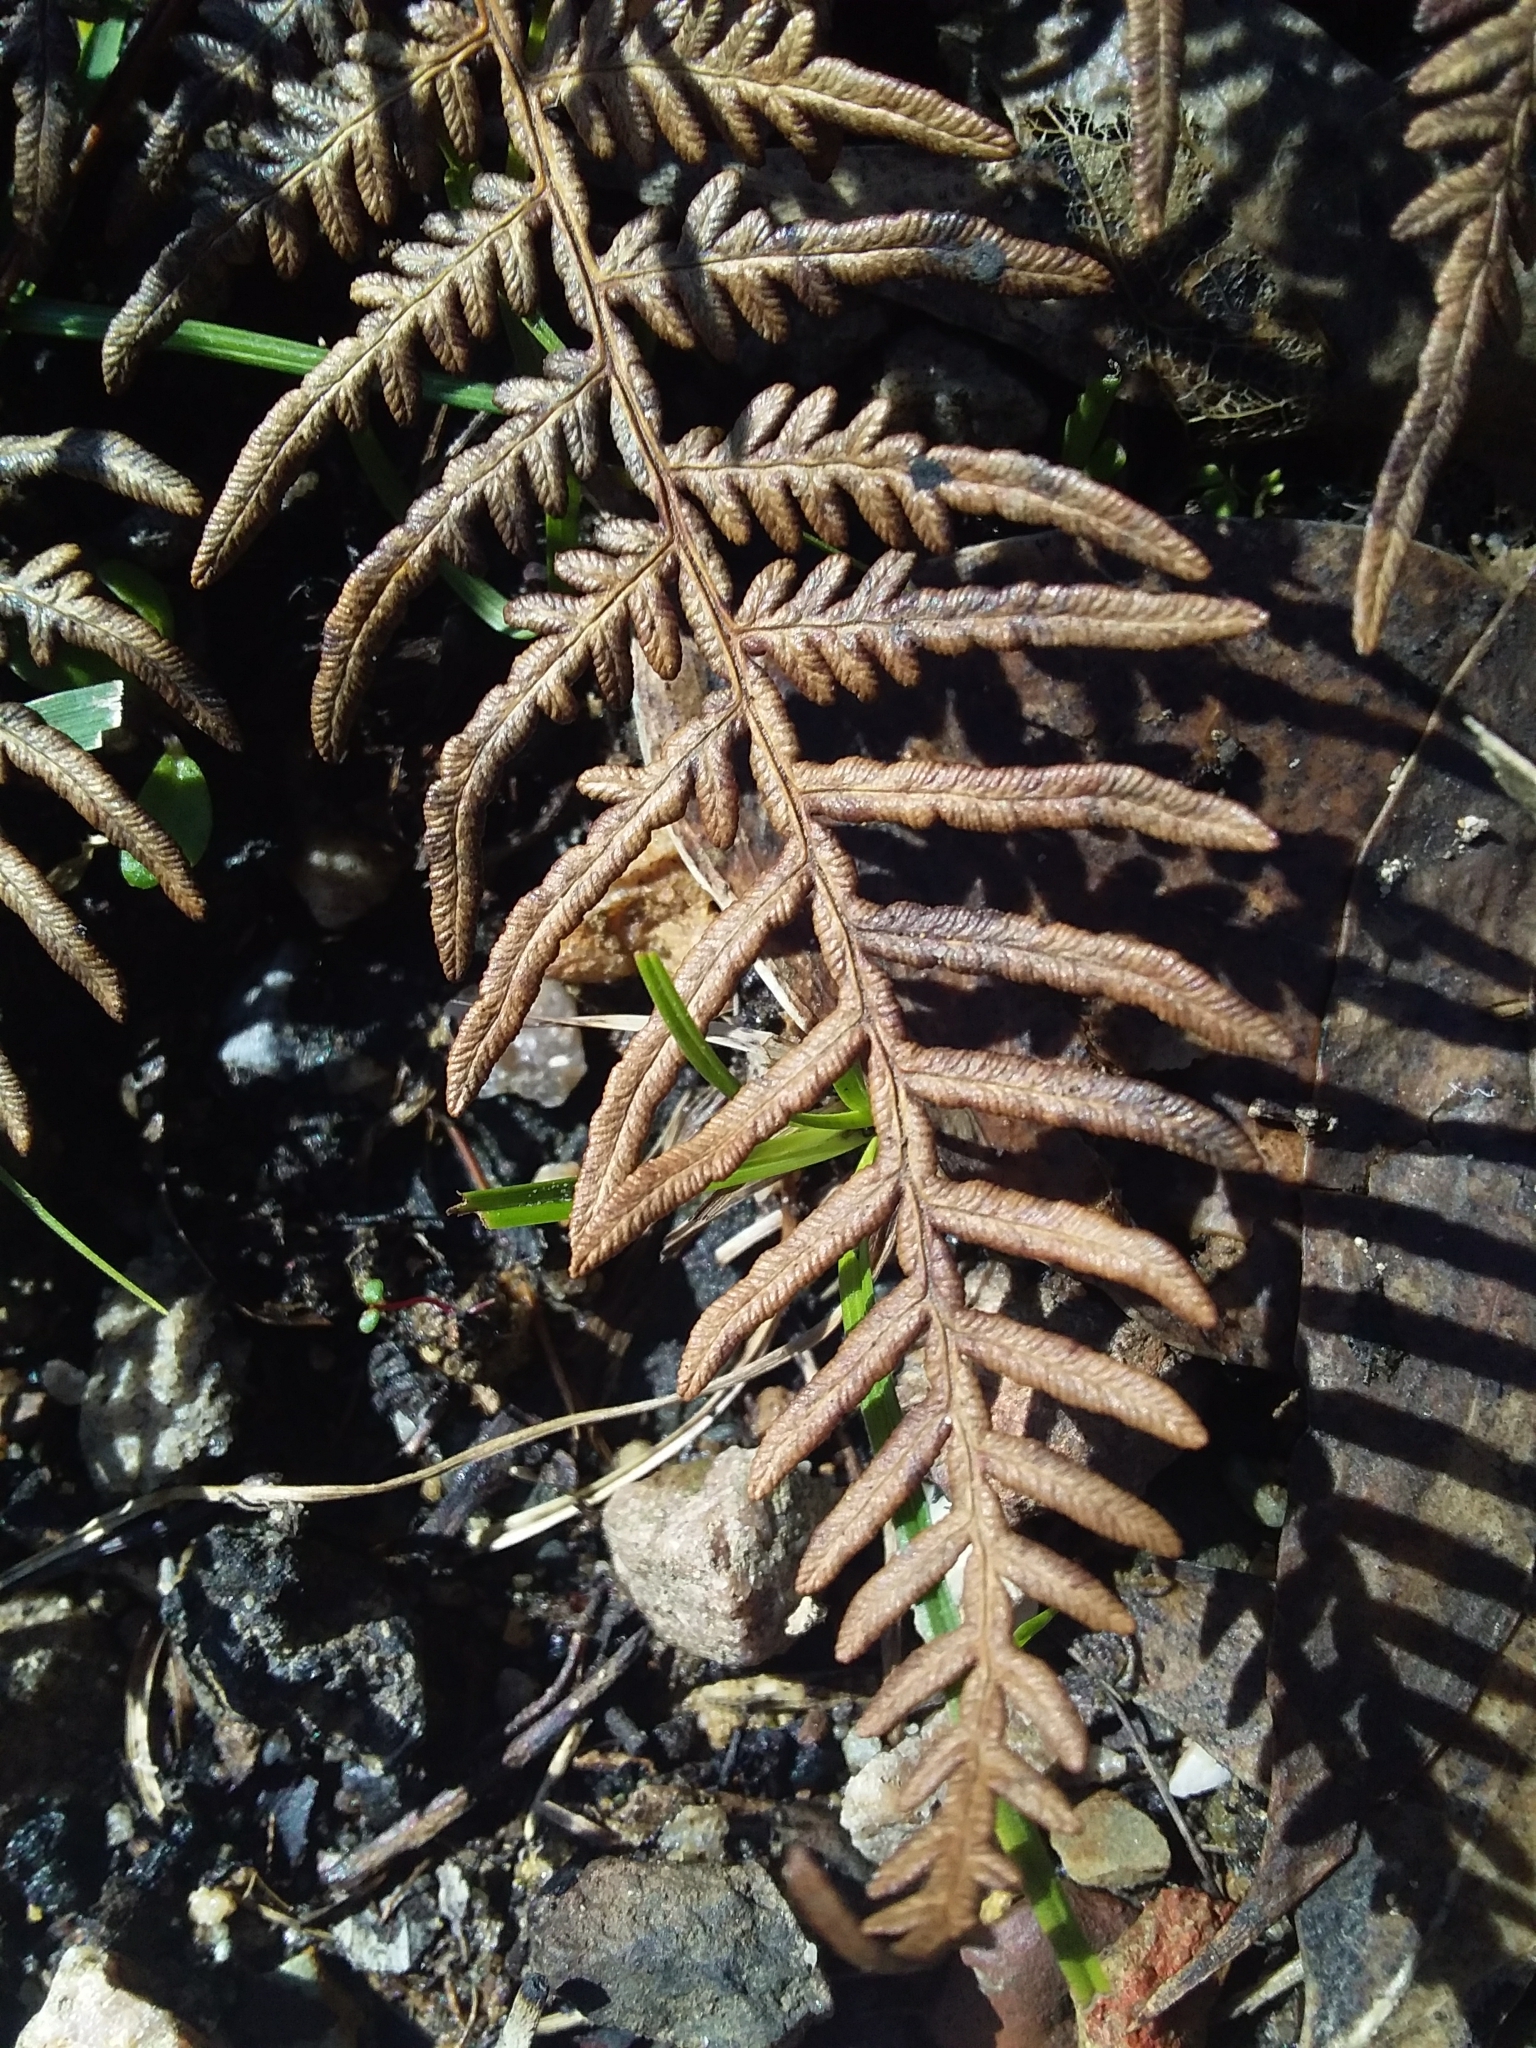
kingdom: Plantae
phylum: Tracheophyta
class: Polypodiopsida
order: Polypodiales
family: Dennstaedtiaceae
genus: Pteridium
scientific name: Pteridium esculentum
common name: Bracken fern
